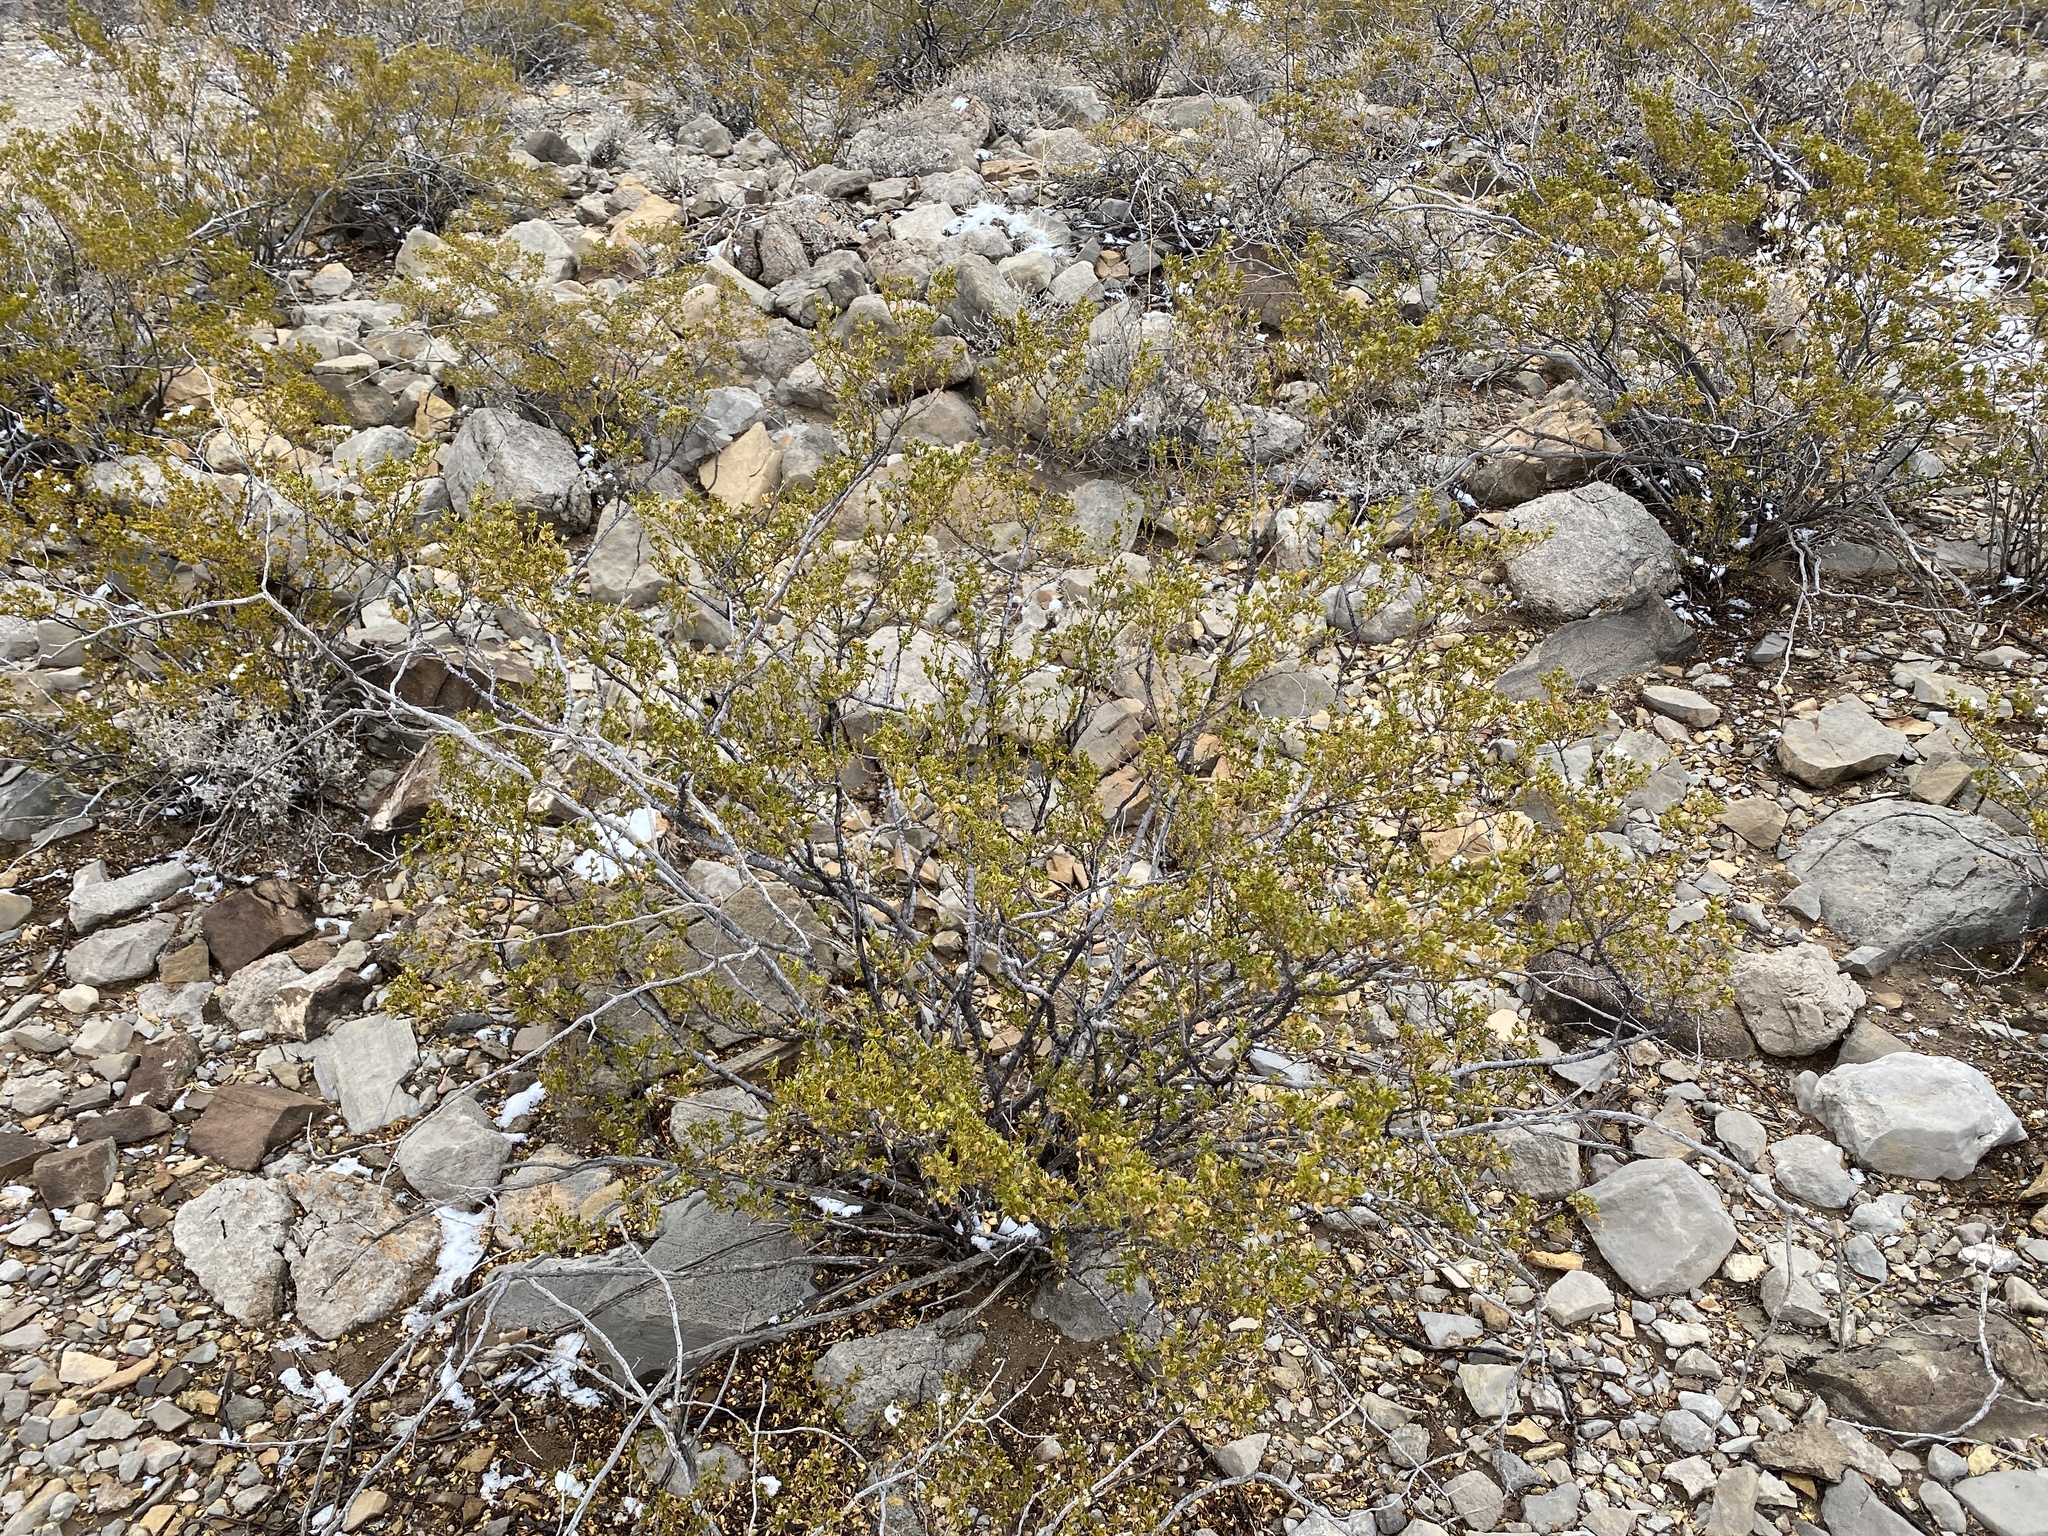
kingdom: Plantae
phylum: Tracheophyta
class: Magnoliopsida
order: Zygophyllales
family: Zygophyllaceae
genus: Larrea
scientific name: Larrea tridentata
